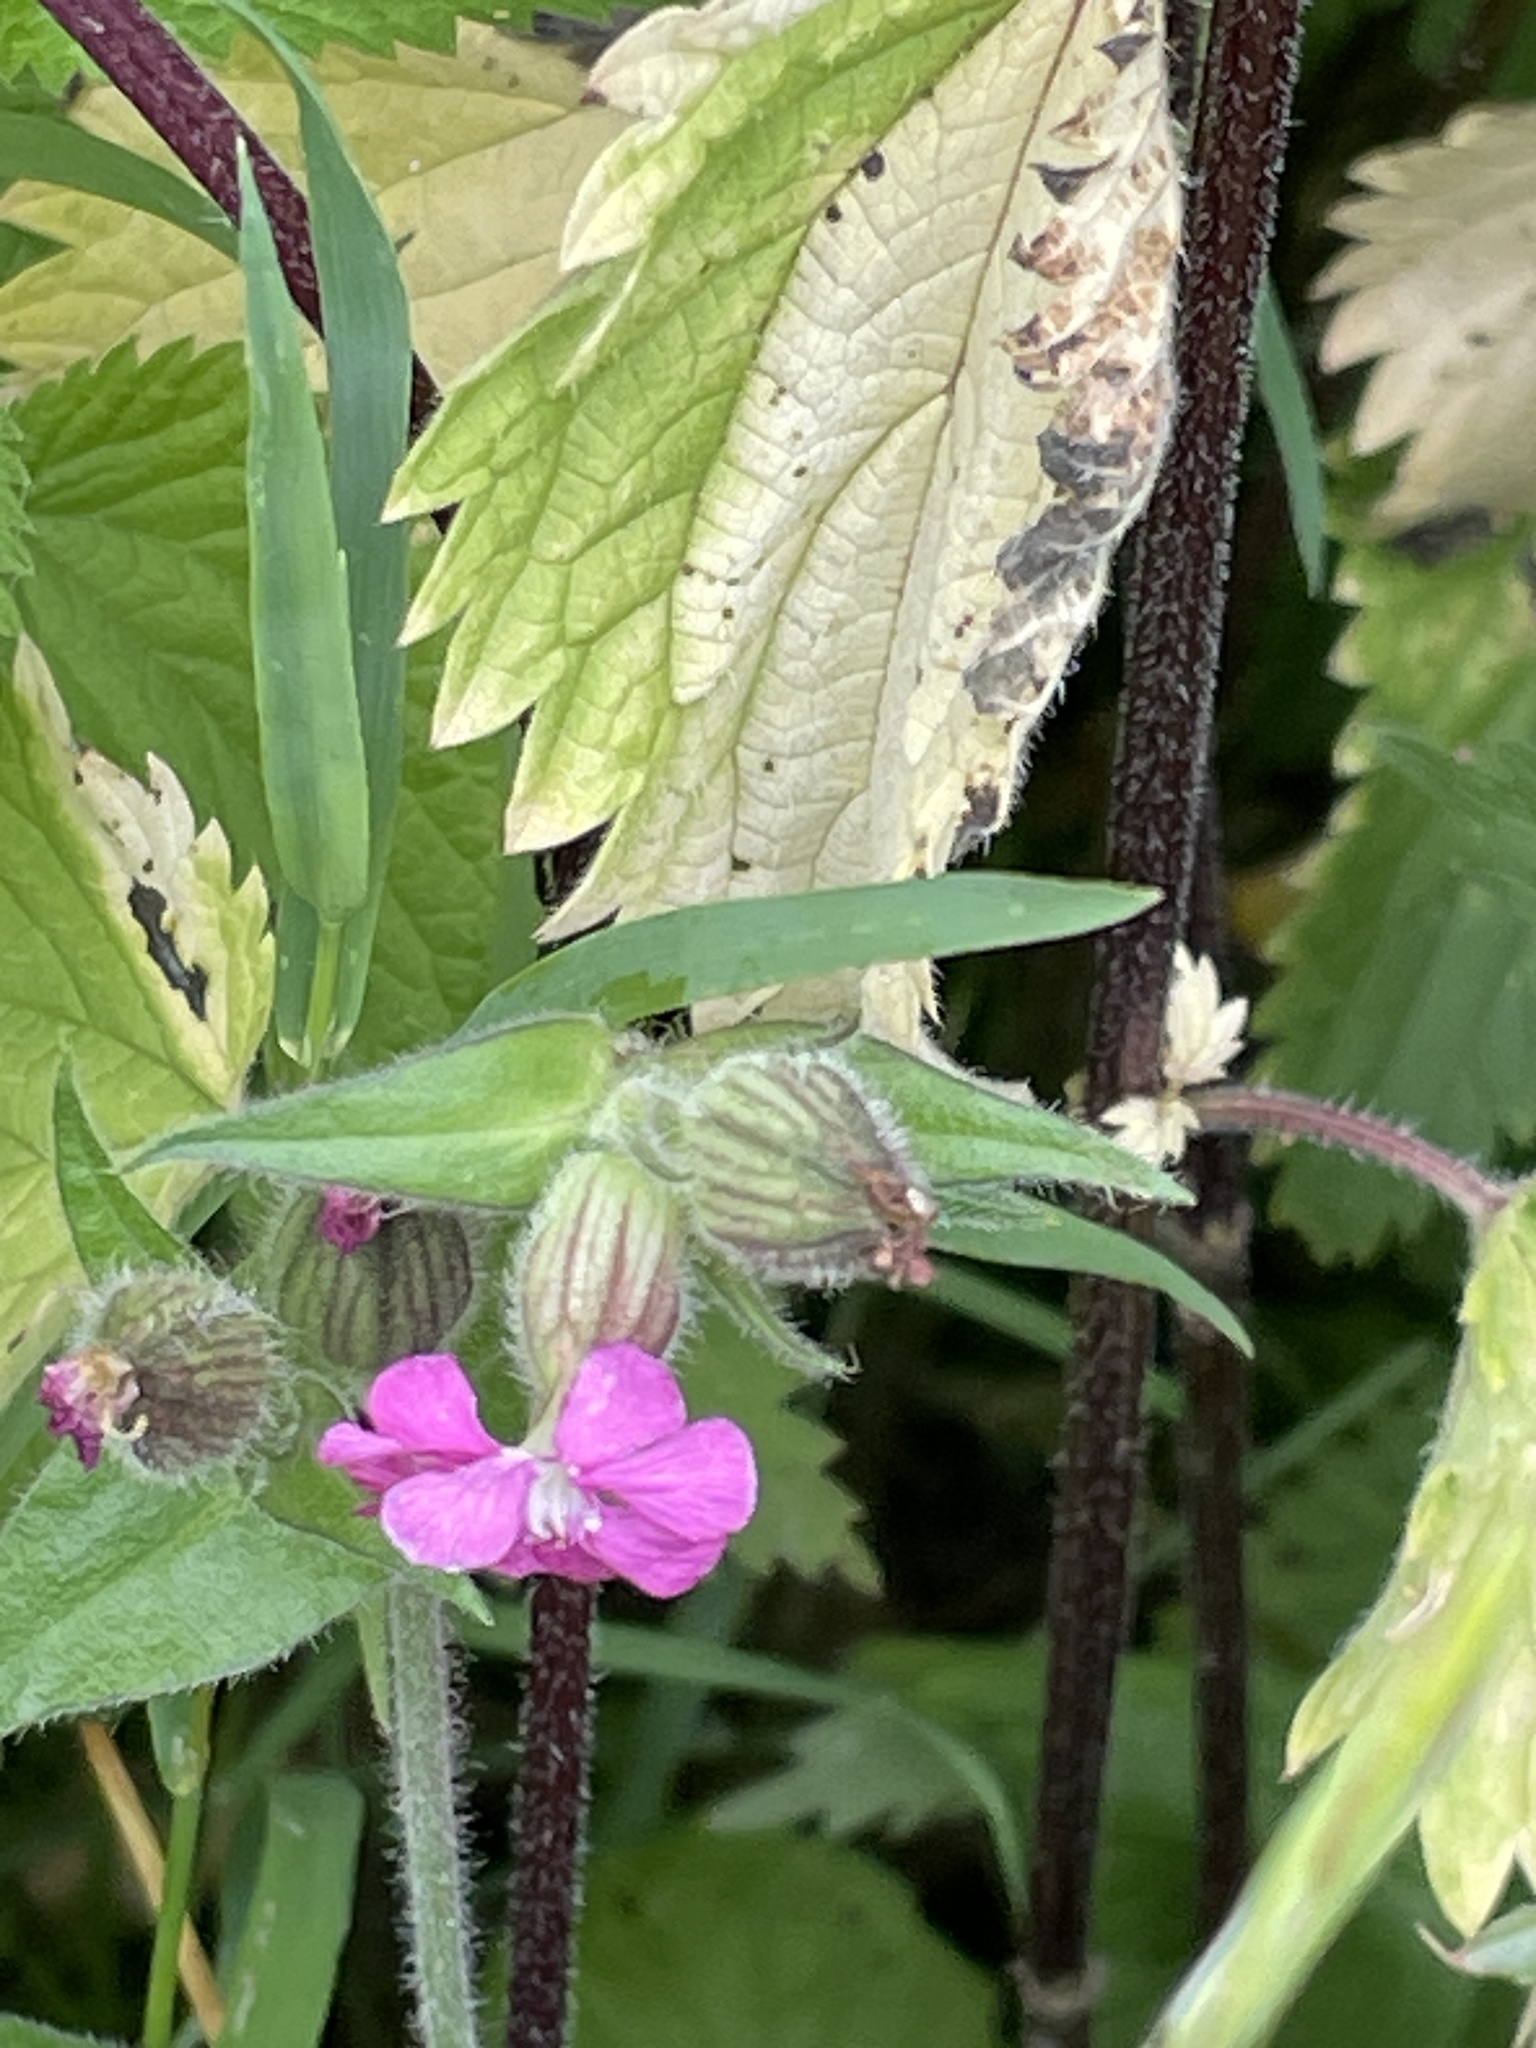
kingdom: Plantae
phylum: Tracheophyta
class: Magnoliopsida
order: Caryophyllales
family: Caryophyllaceae
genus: Silene
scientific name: Silene dioica
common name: Red campion
